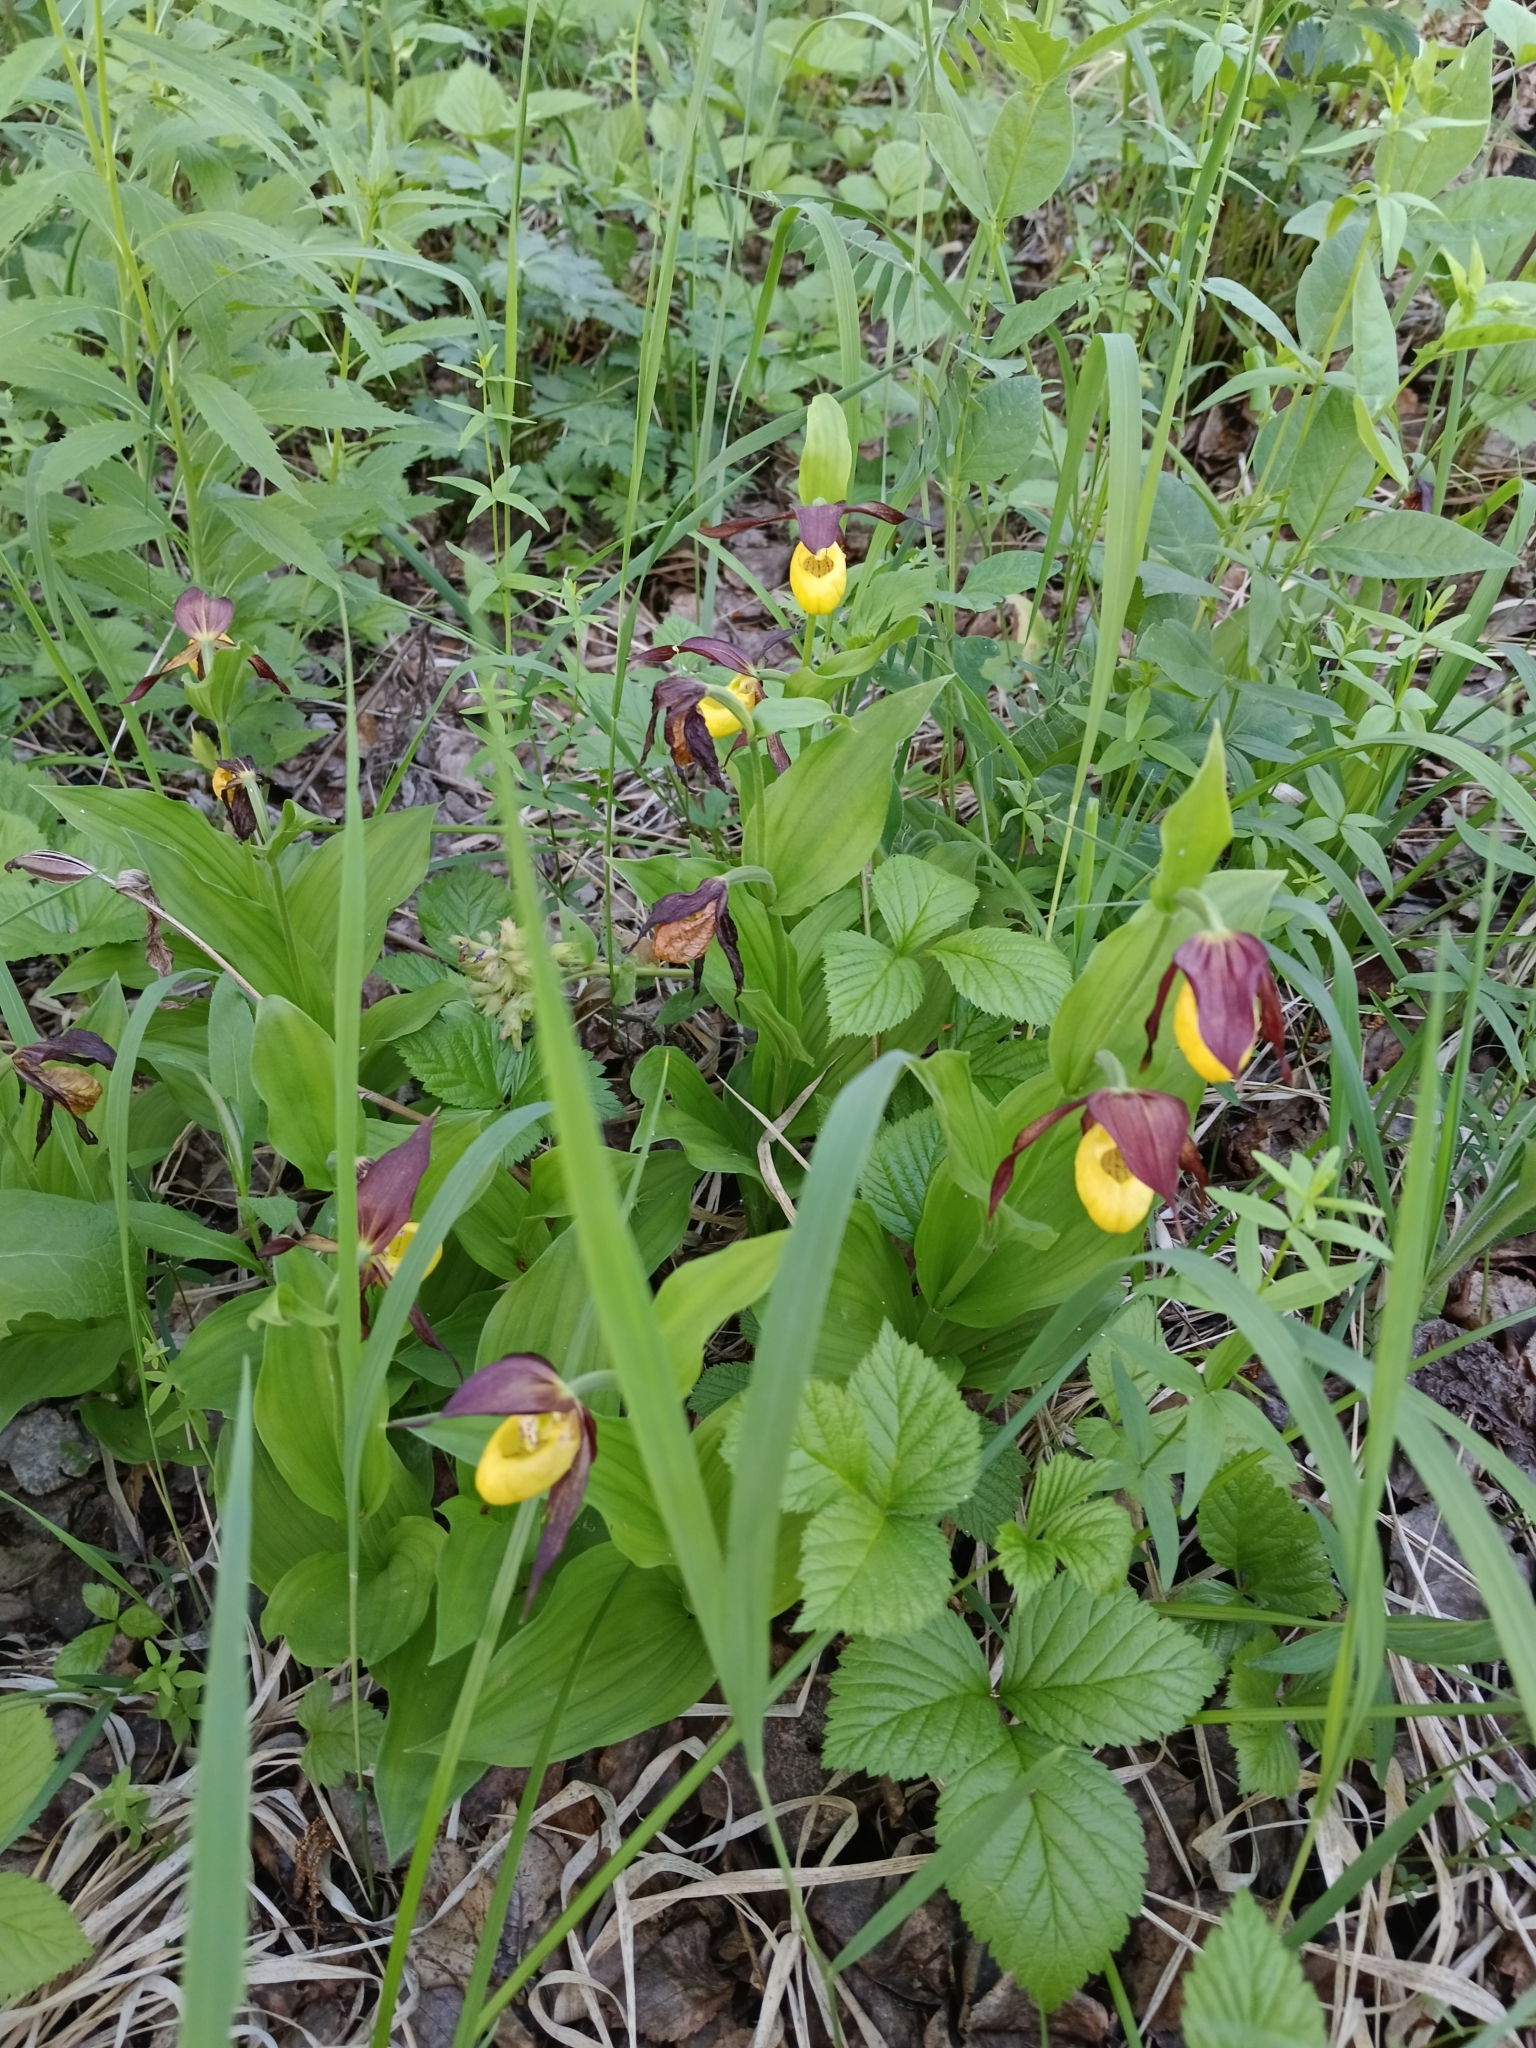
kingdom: Plantae
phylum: Tracheophyta
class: Liliopsida
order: Asparagales
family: Orchidaceae
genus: Cypripedium
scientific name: Cypripedium calceolus
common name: Lady's-slipper
